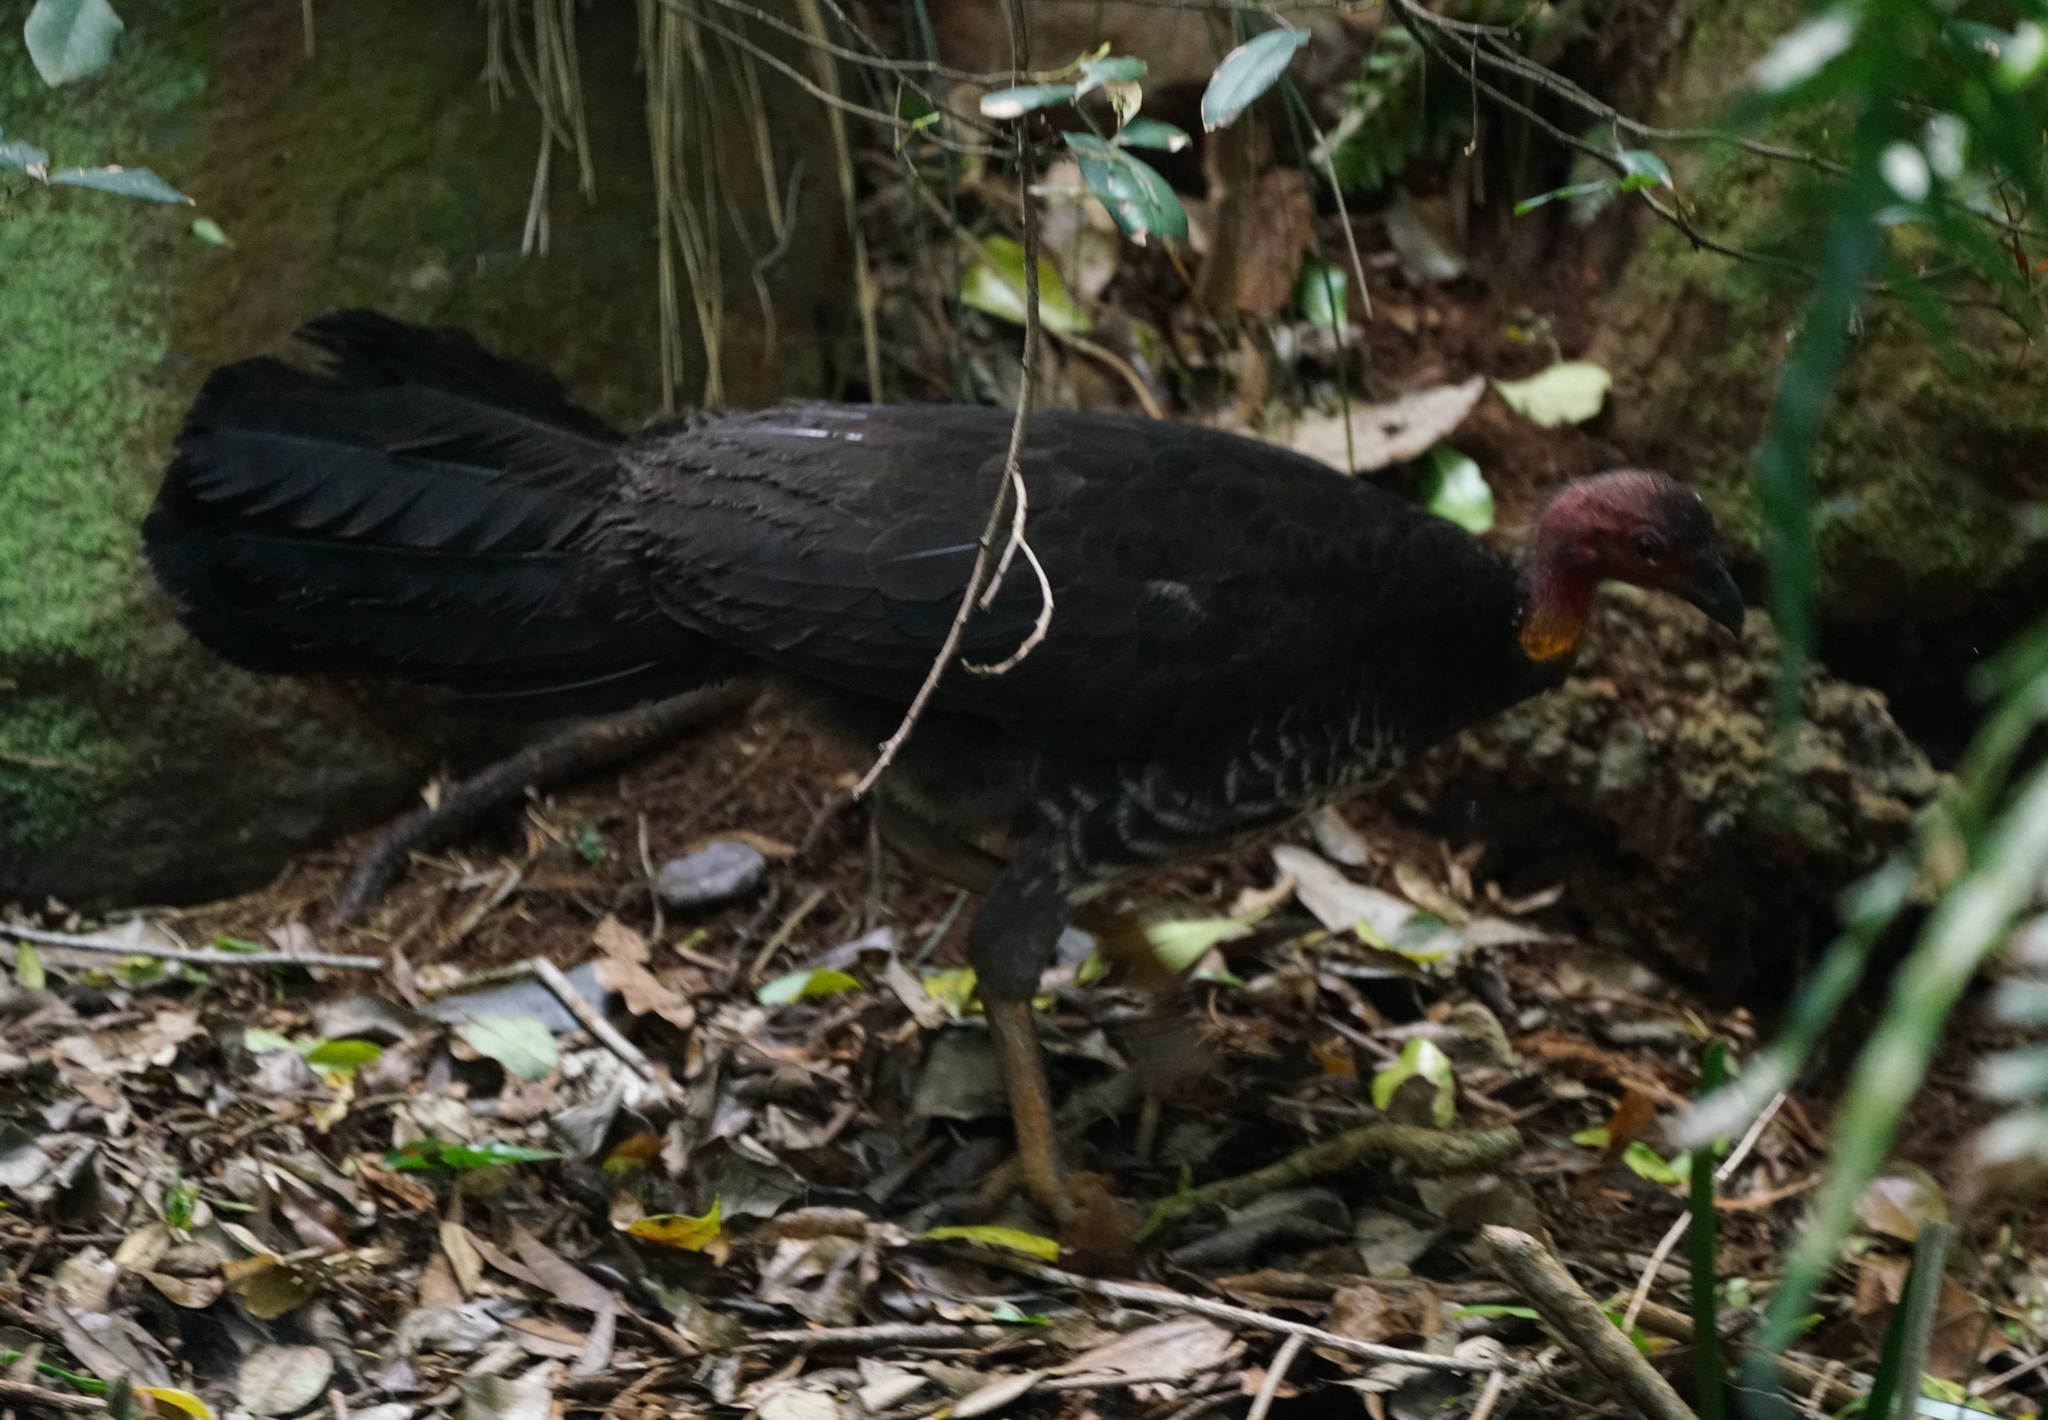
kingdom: Animalia
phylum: Chordata
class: Aves
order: Galliformes
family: Megapodiidae
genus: Alectura
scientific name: Alectura lathami
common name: Australian brushturkey
